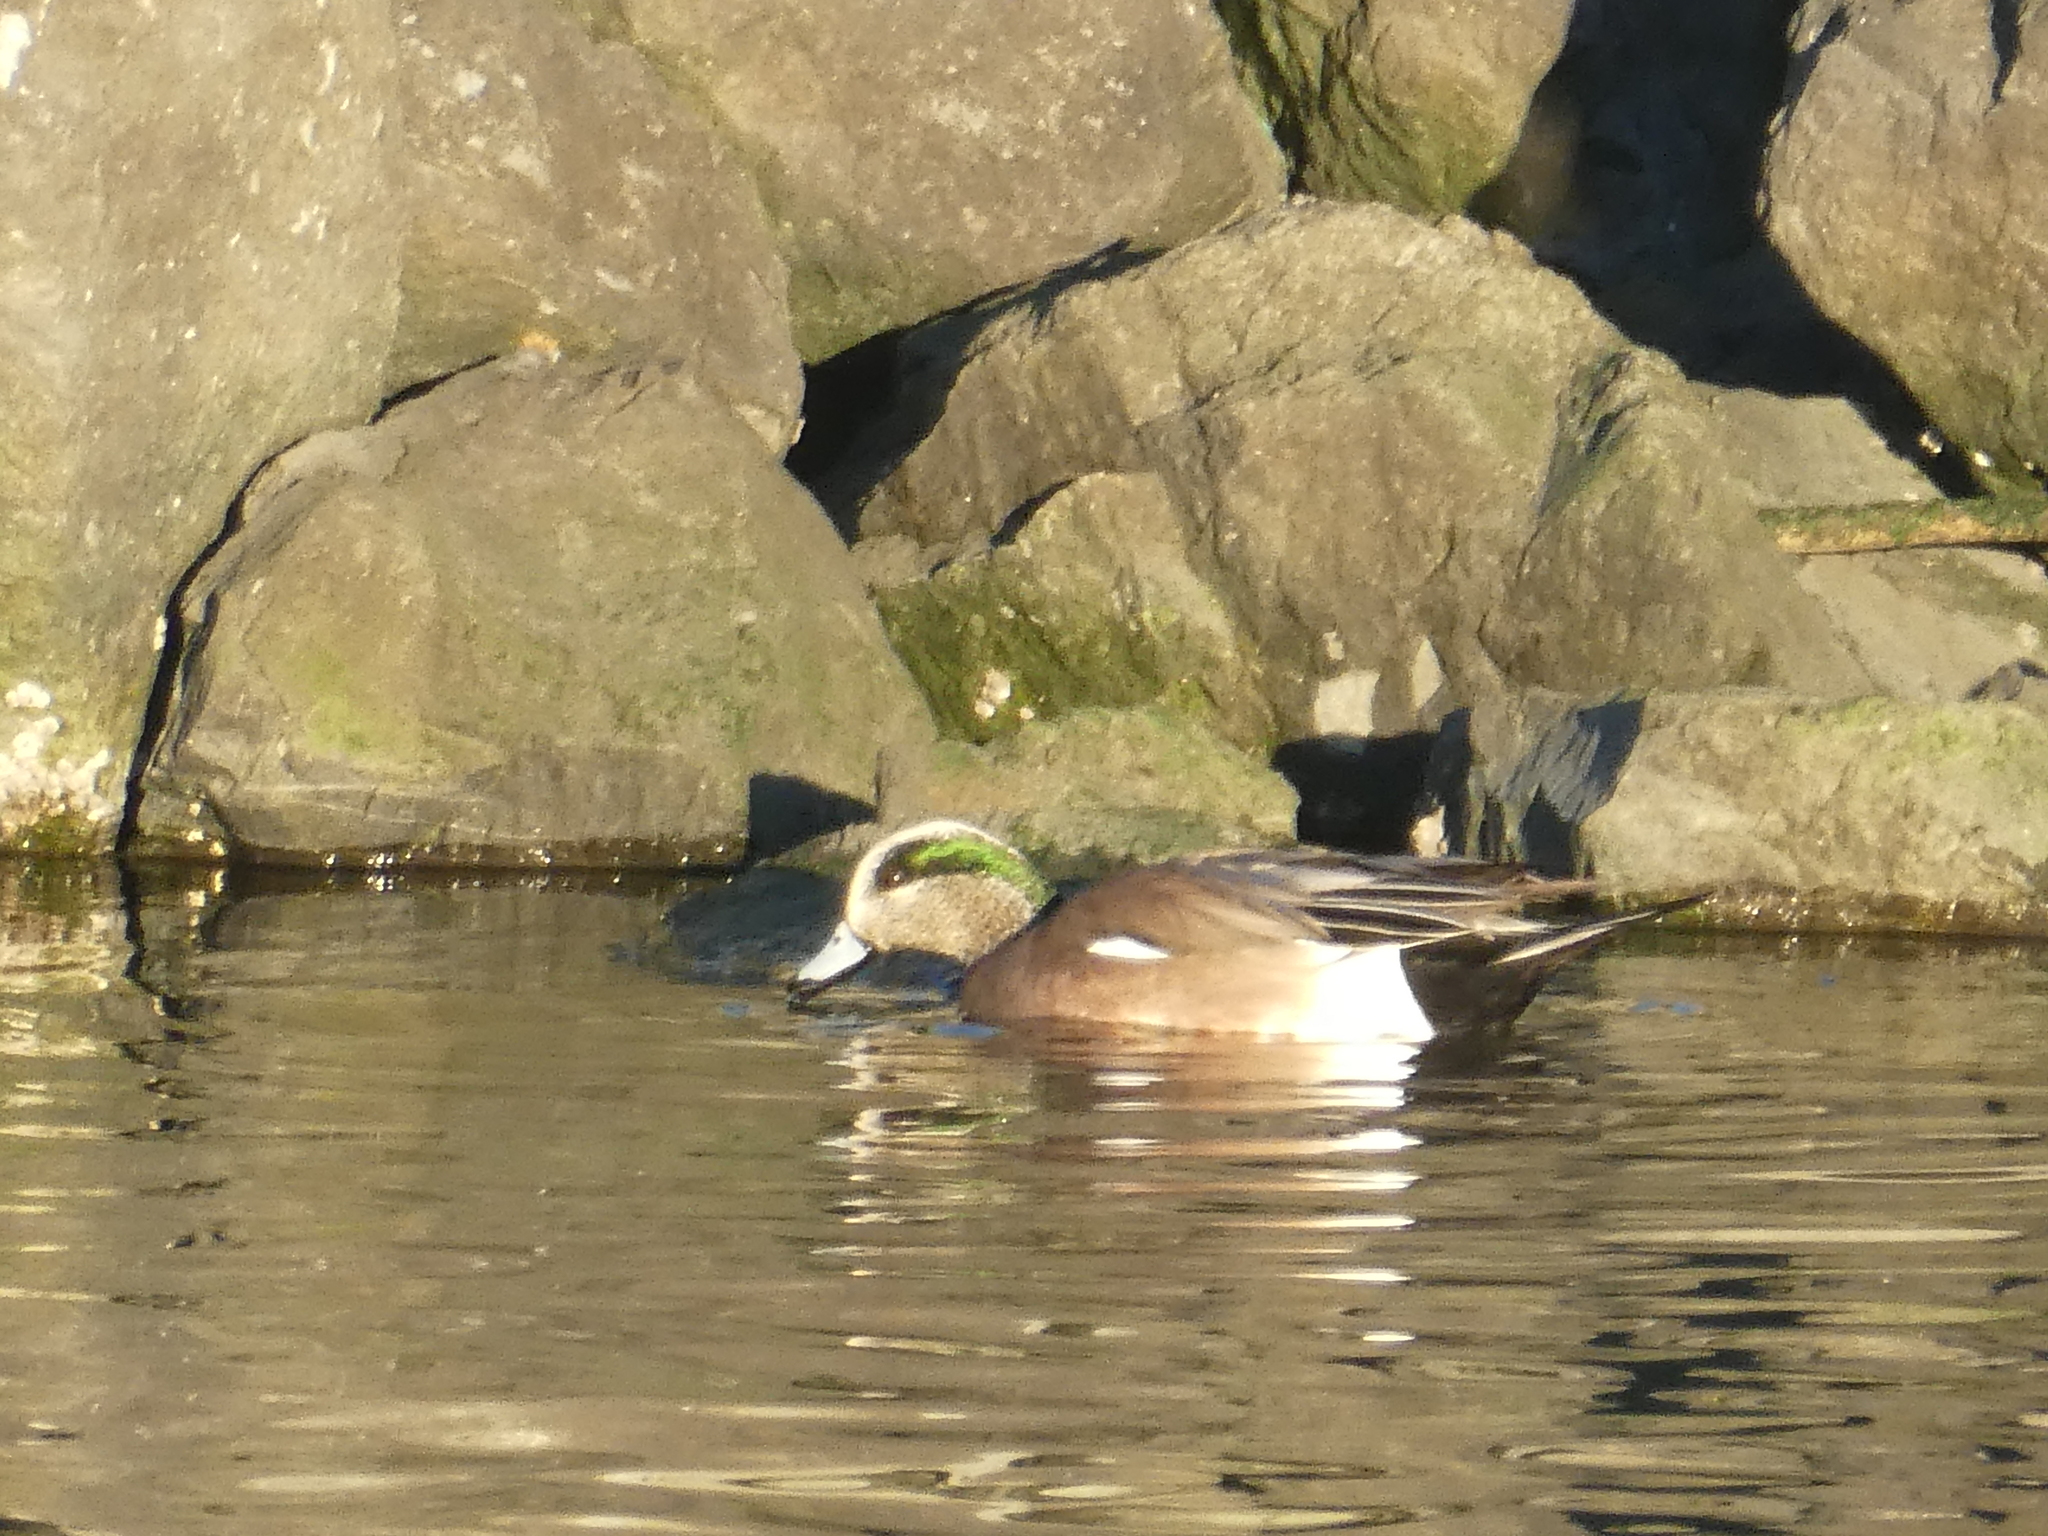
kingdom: Animalia
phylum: Chordata
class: Aves
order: Anseriformes
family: Anatidae
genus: Mareca
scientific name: Mareca americana
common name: American wigeon
